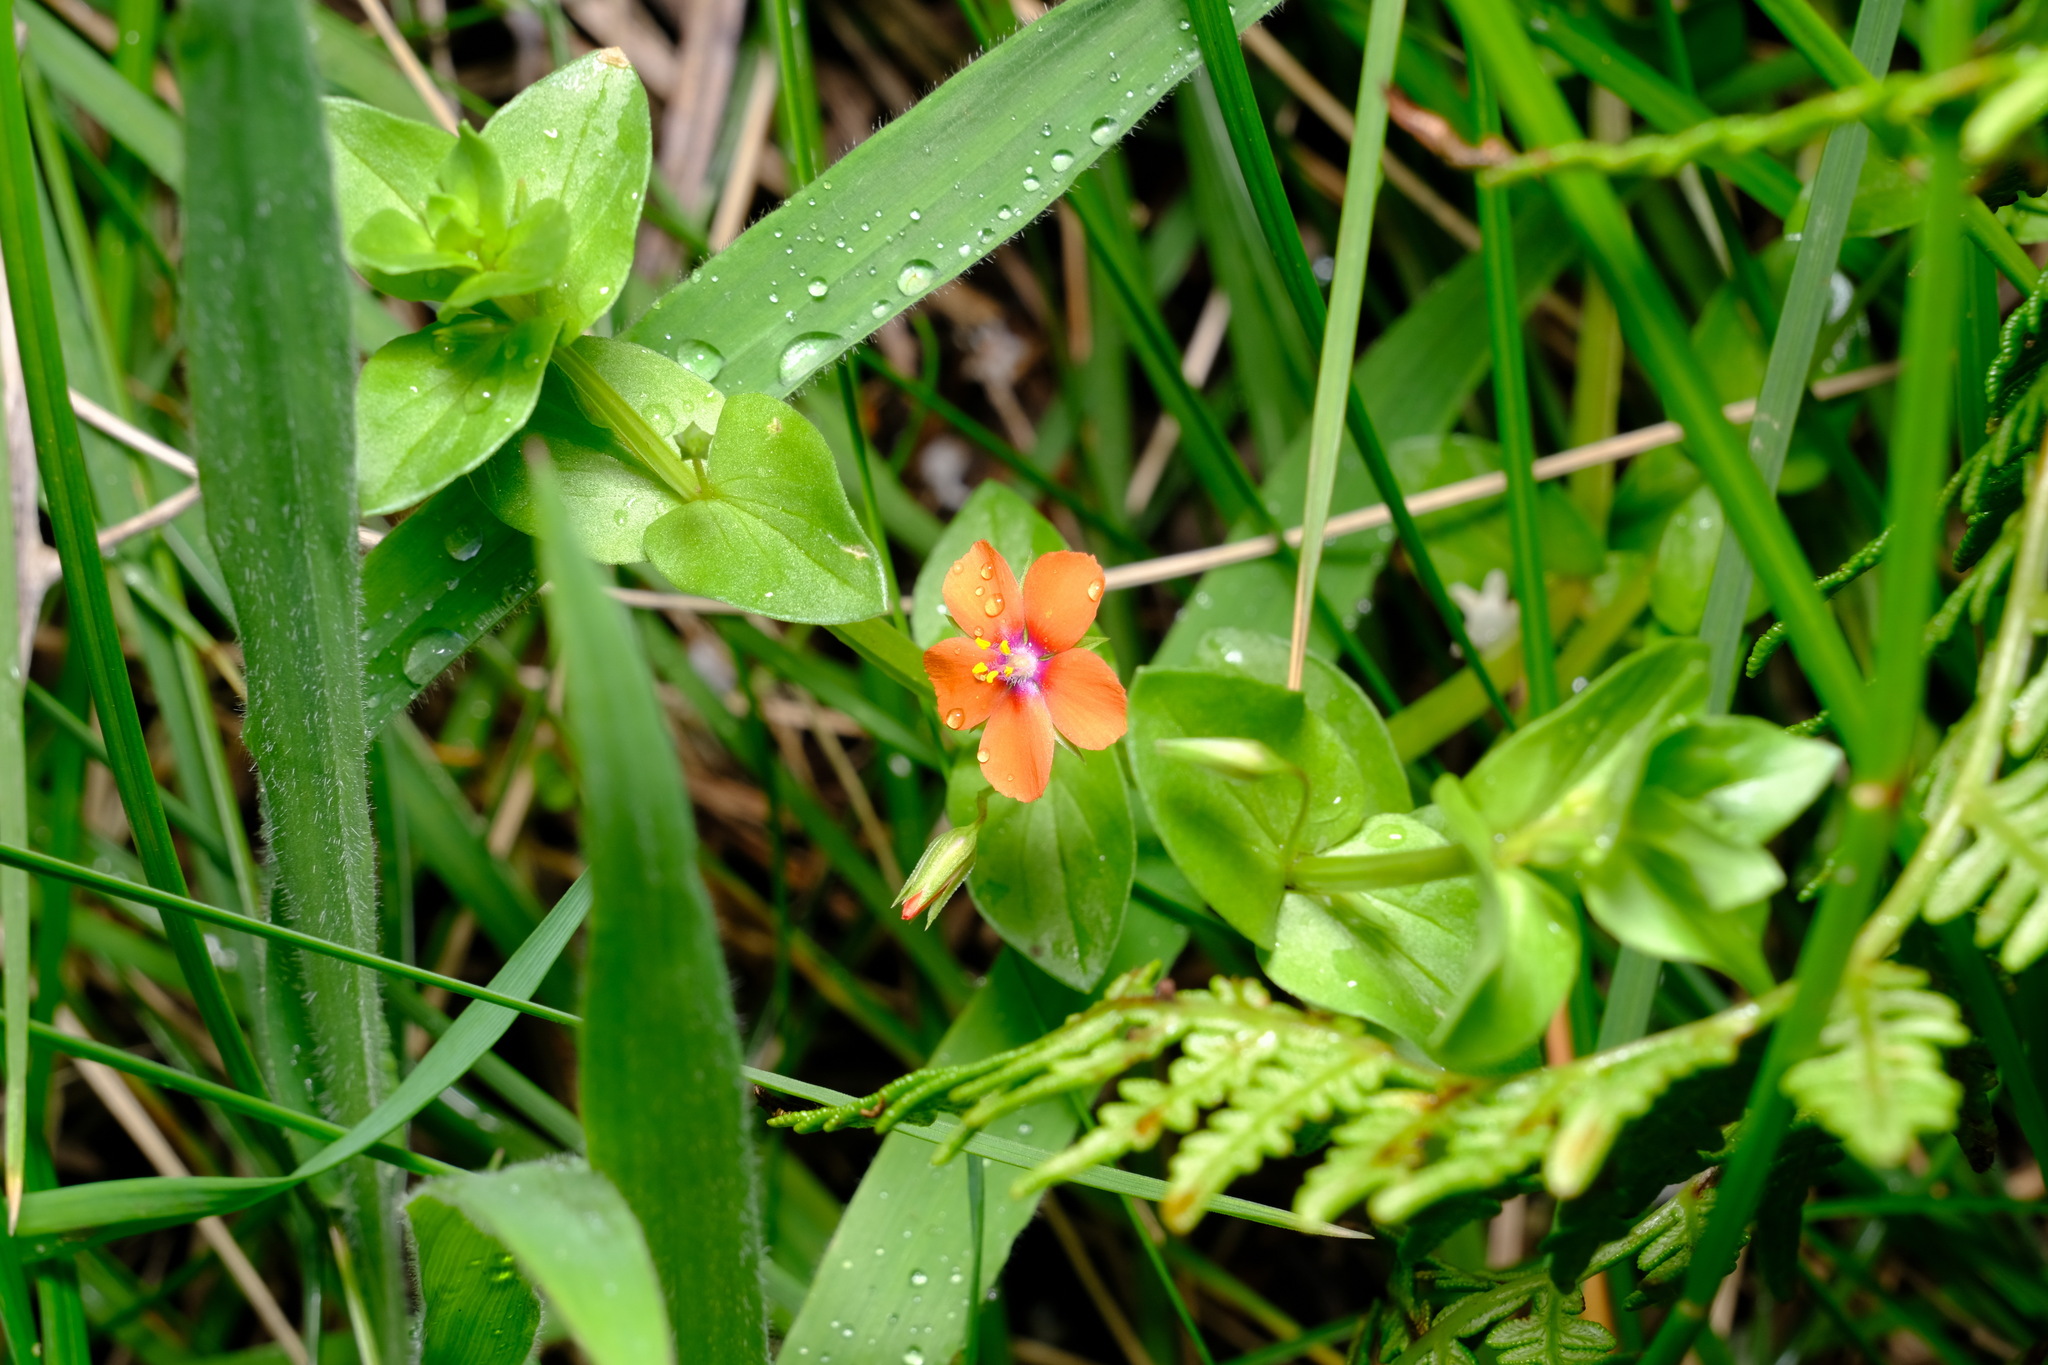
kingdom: Plantae
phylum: Tracheophyta
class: Magnoliopsida
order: Ericales
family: Primulaceae
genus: Lysimachia
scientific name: Lysimachia arvensis
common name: Scarlet pimpernel
